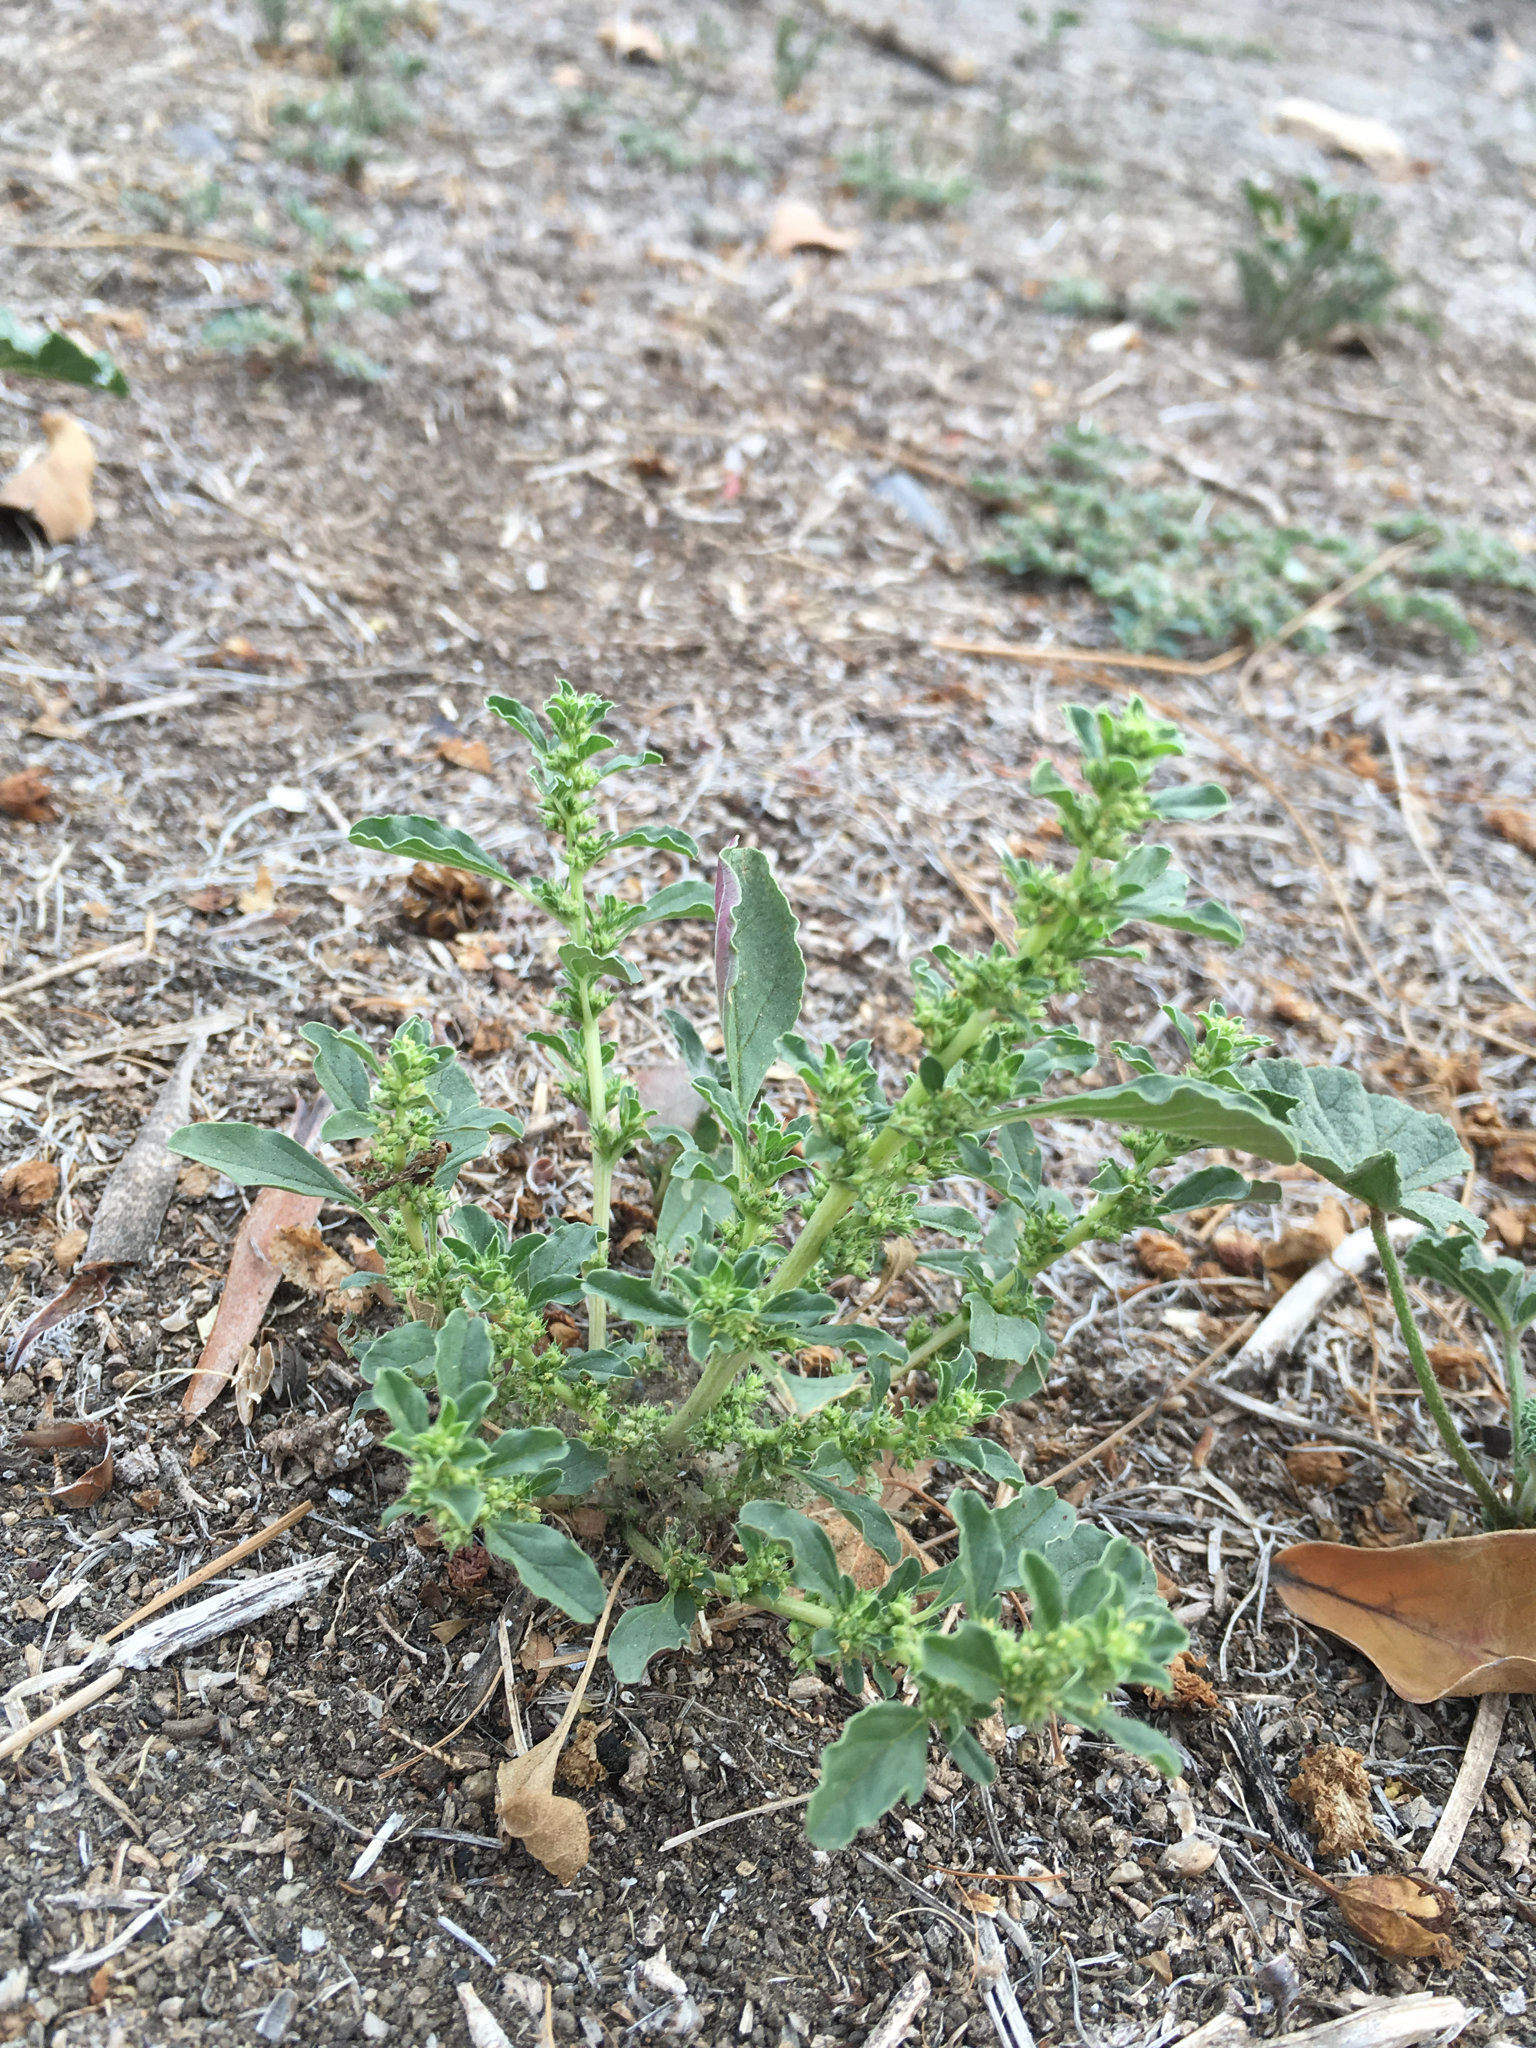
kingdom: Plantae
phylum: Tracheophyta
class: Magnoliopsida
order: Caryophyllales
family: Amaranthaceae
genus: Amaranthus
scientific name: Amaranthus albus
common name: White pigweed
